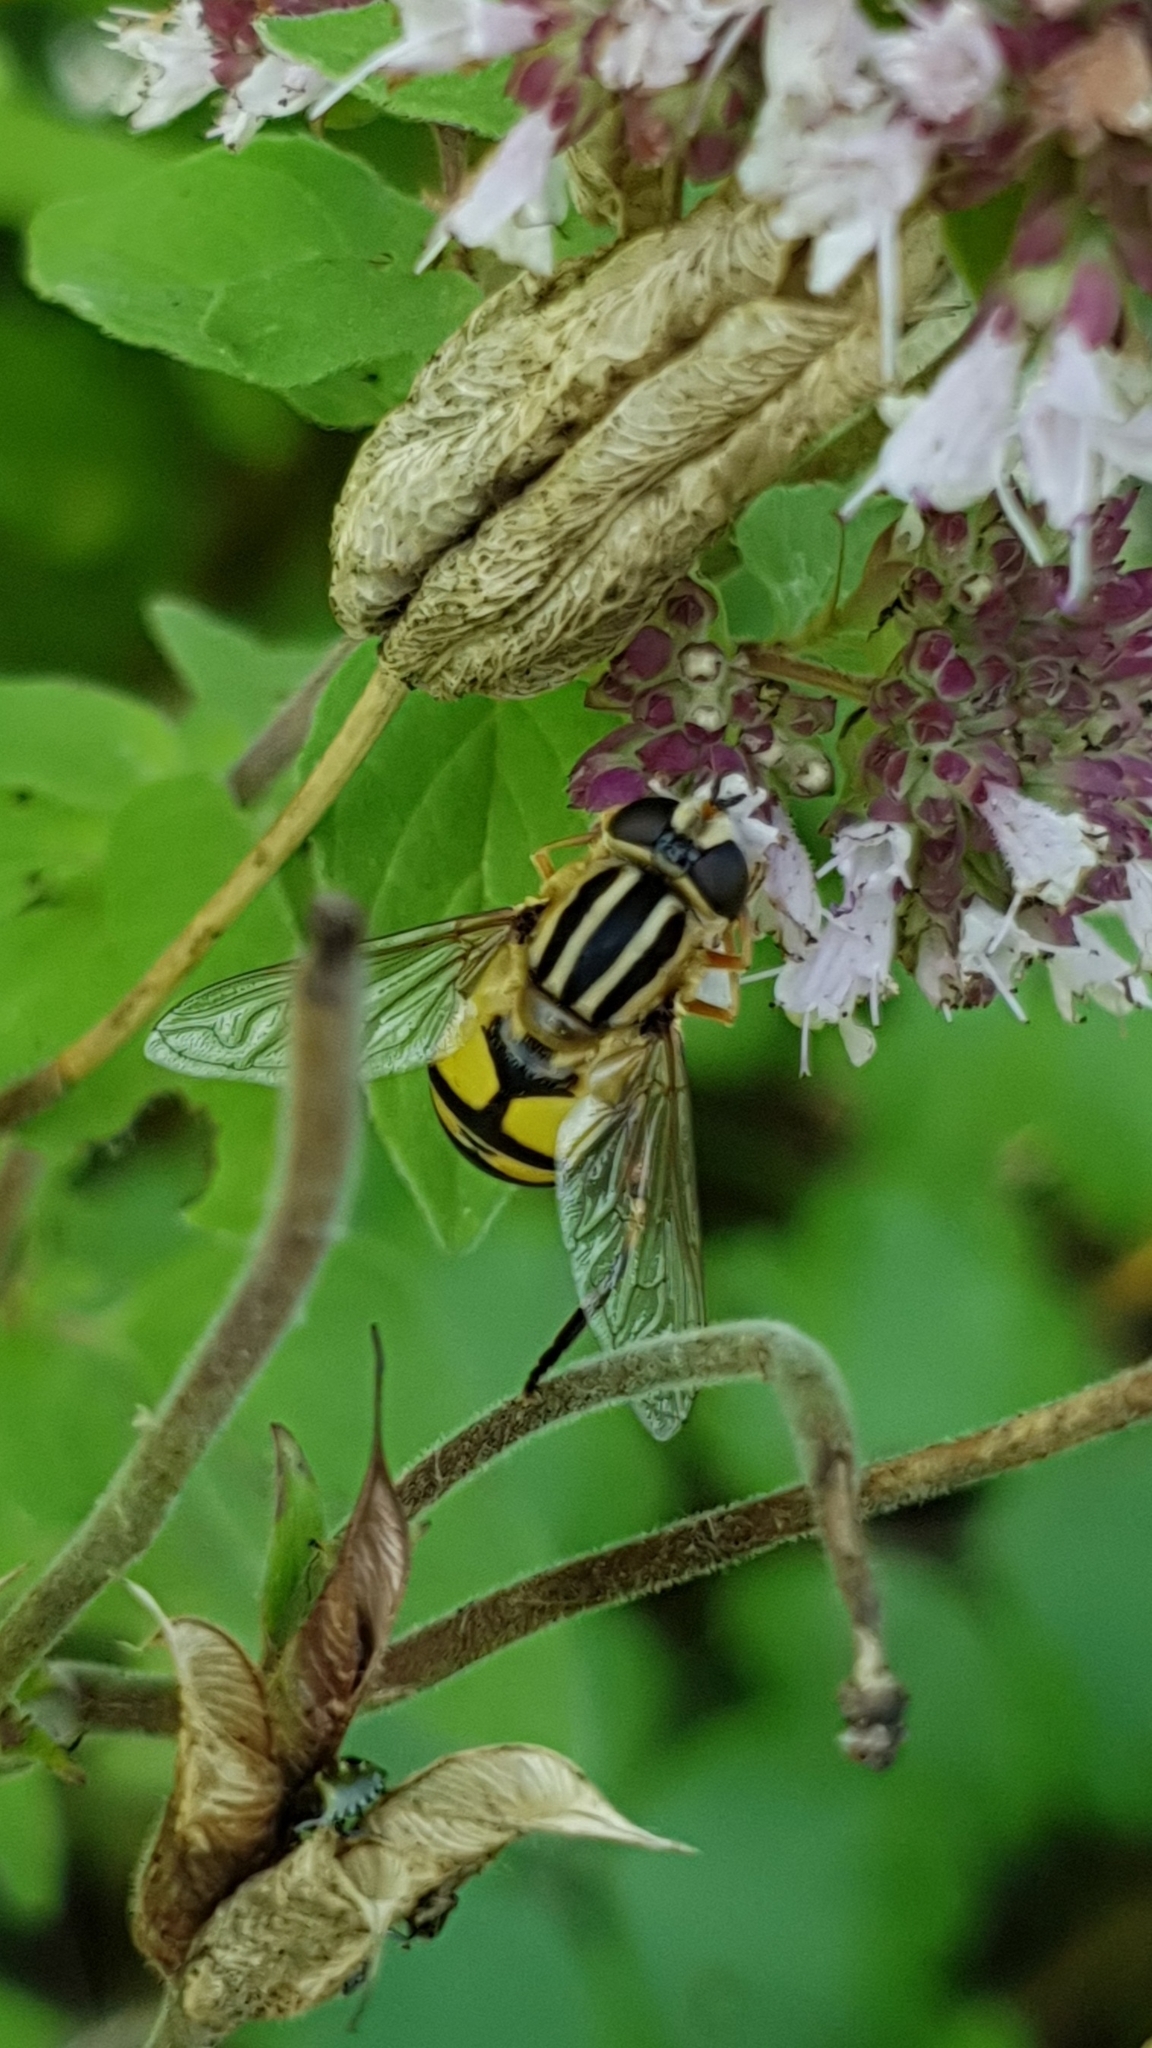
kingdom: Animalia
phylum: Arthropoda
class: Insecta
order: Diptera
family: Syrphidae
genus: Helophilus
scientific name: Helophilus trivittatus
